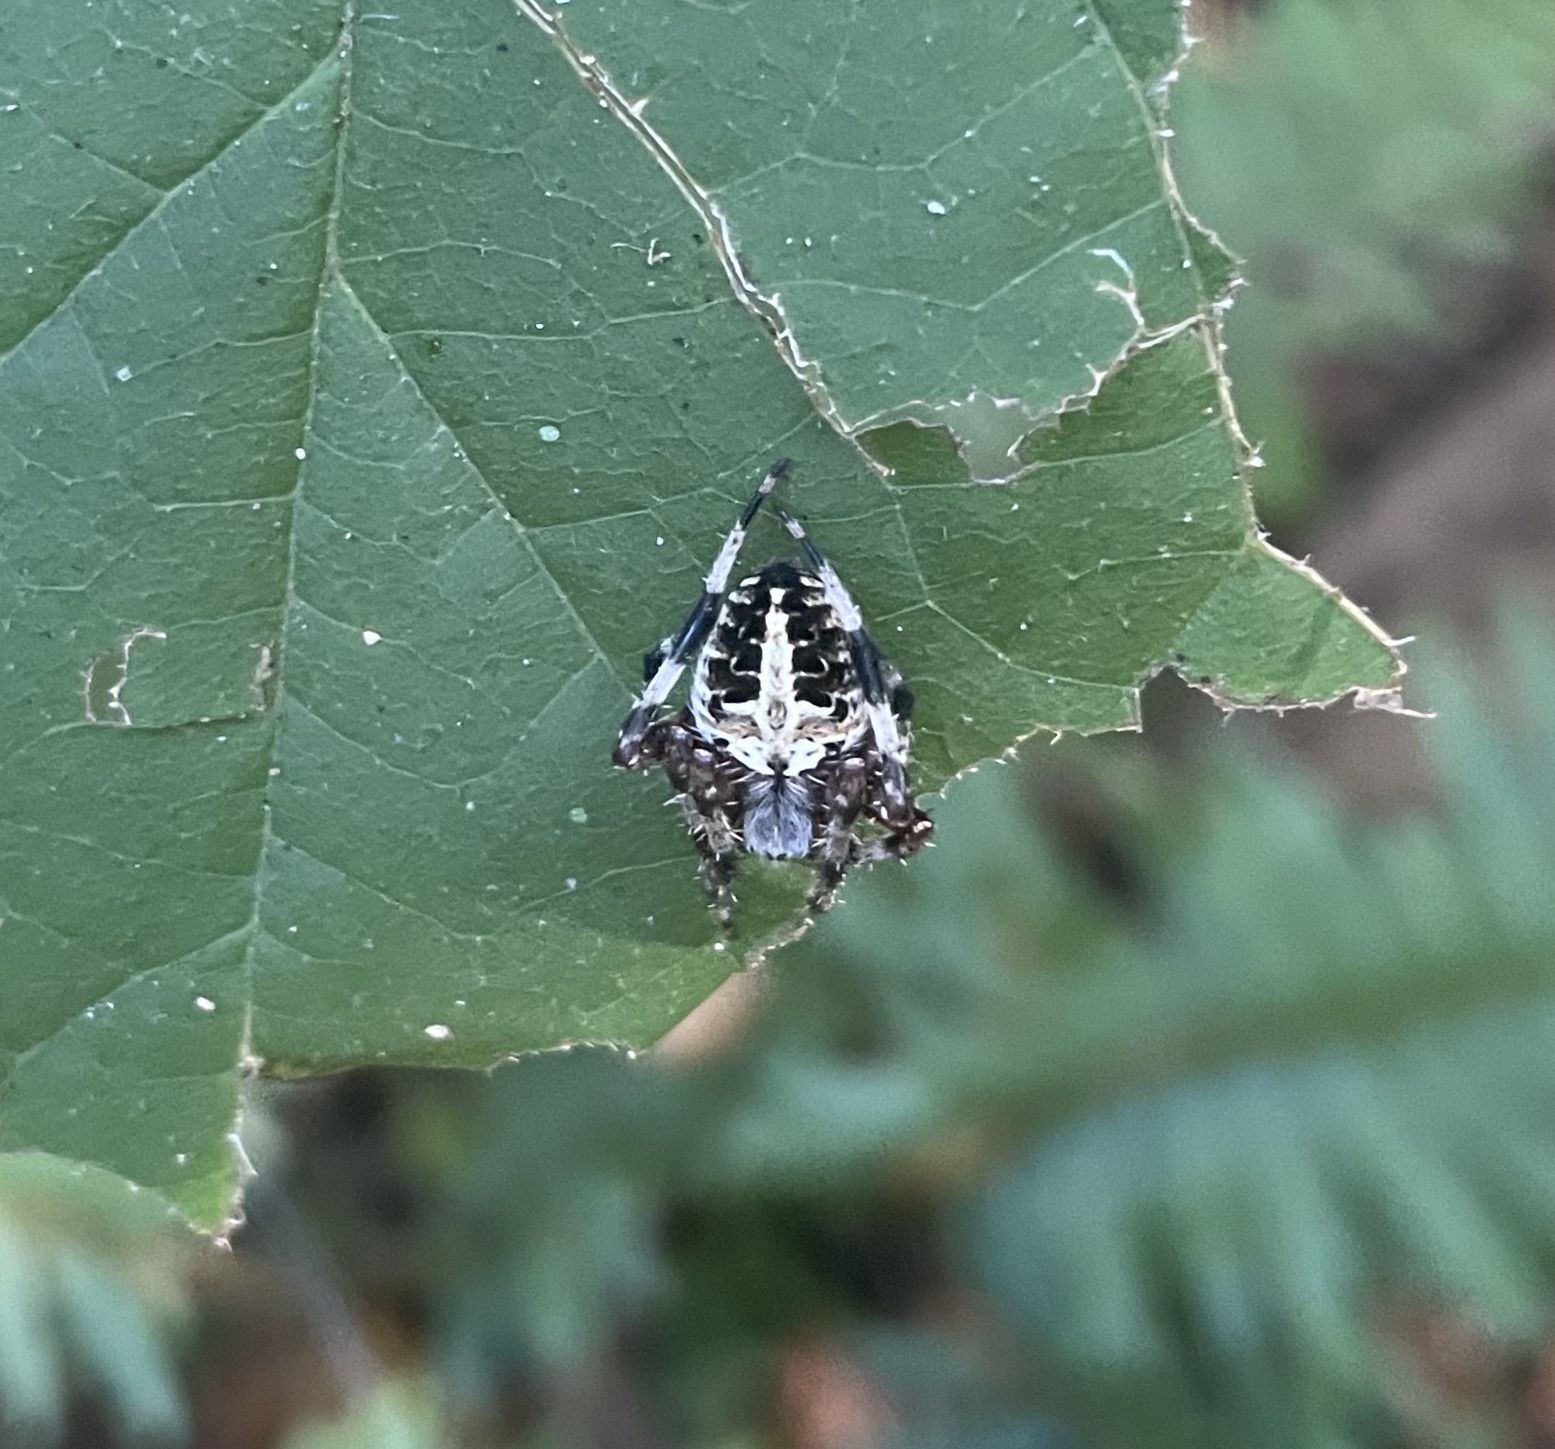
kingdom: Animalia
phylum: Arthropoda
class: Arachnida
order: Araneae
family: Araneidae
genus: Neoscona
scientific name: Neoscona domiciliorum
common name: Red-femured spotted orbweaver
